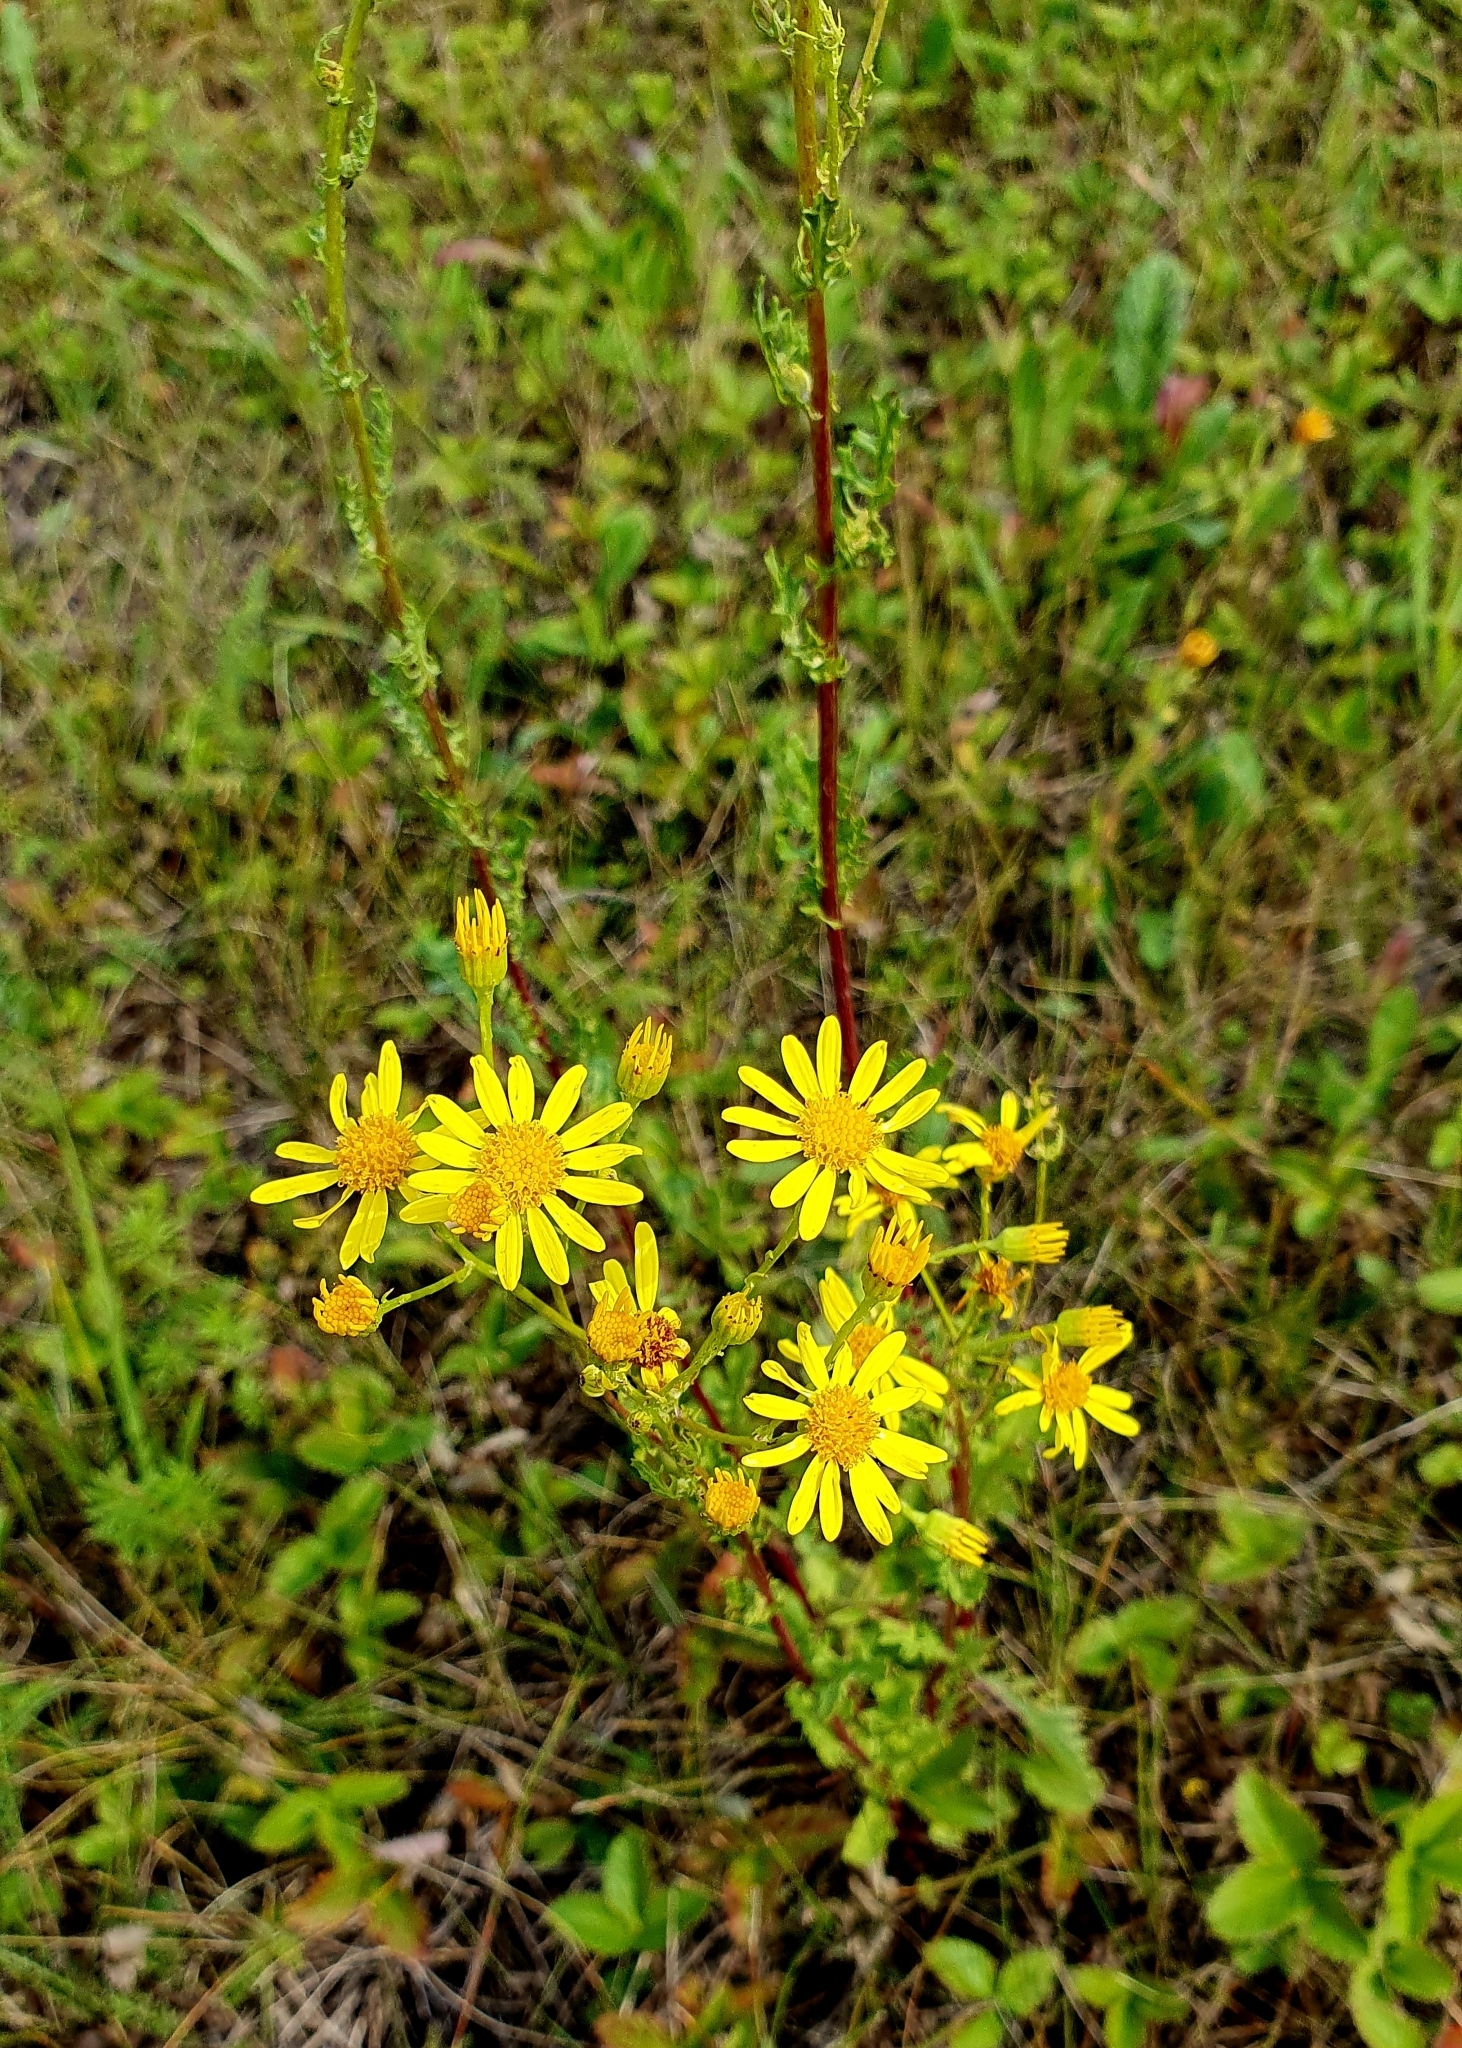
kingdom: Plantae
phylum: Tracheophyta
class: Magnoliopsida
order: Asterales
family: Asteraceae
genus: Jacobaea
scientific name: Jacobaea vulgaris
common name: Stinking willie
